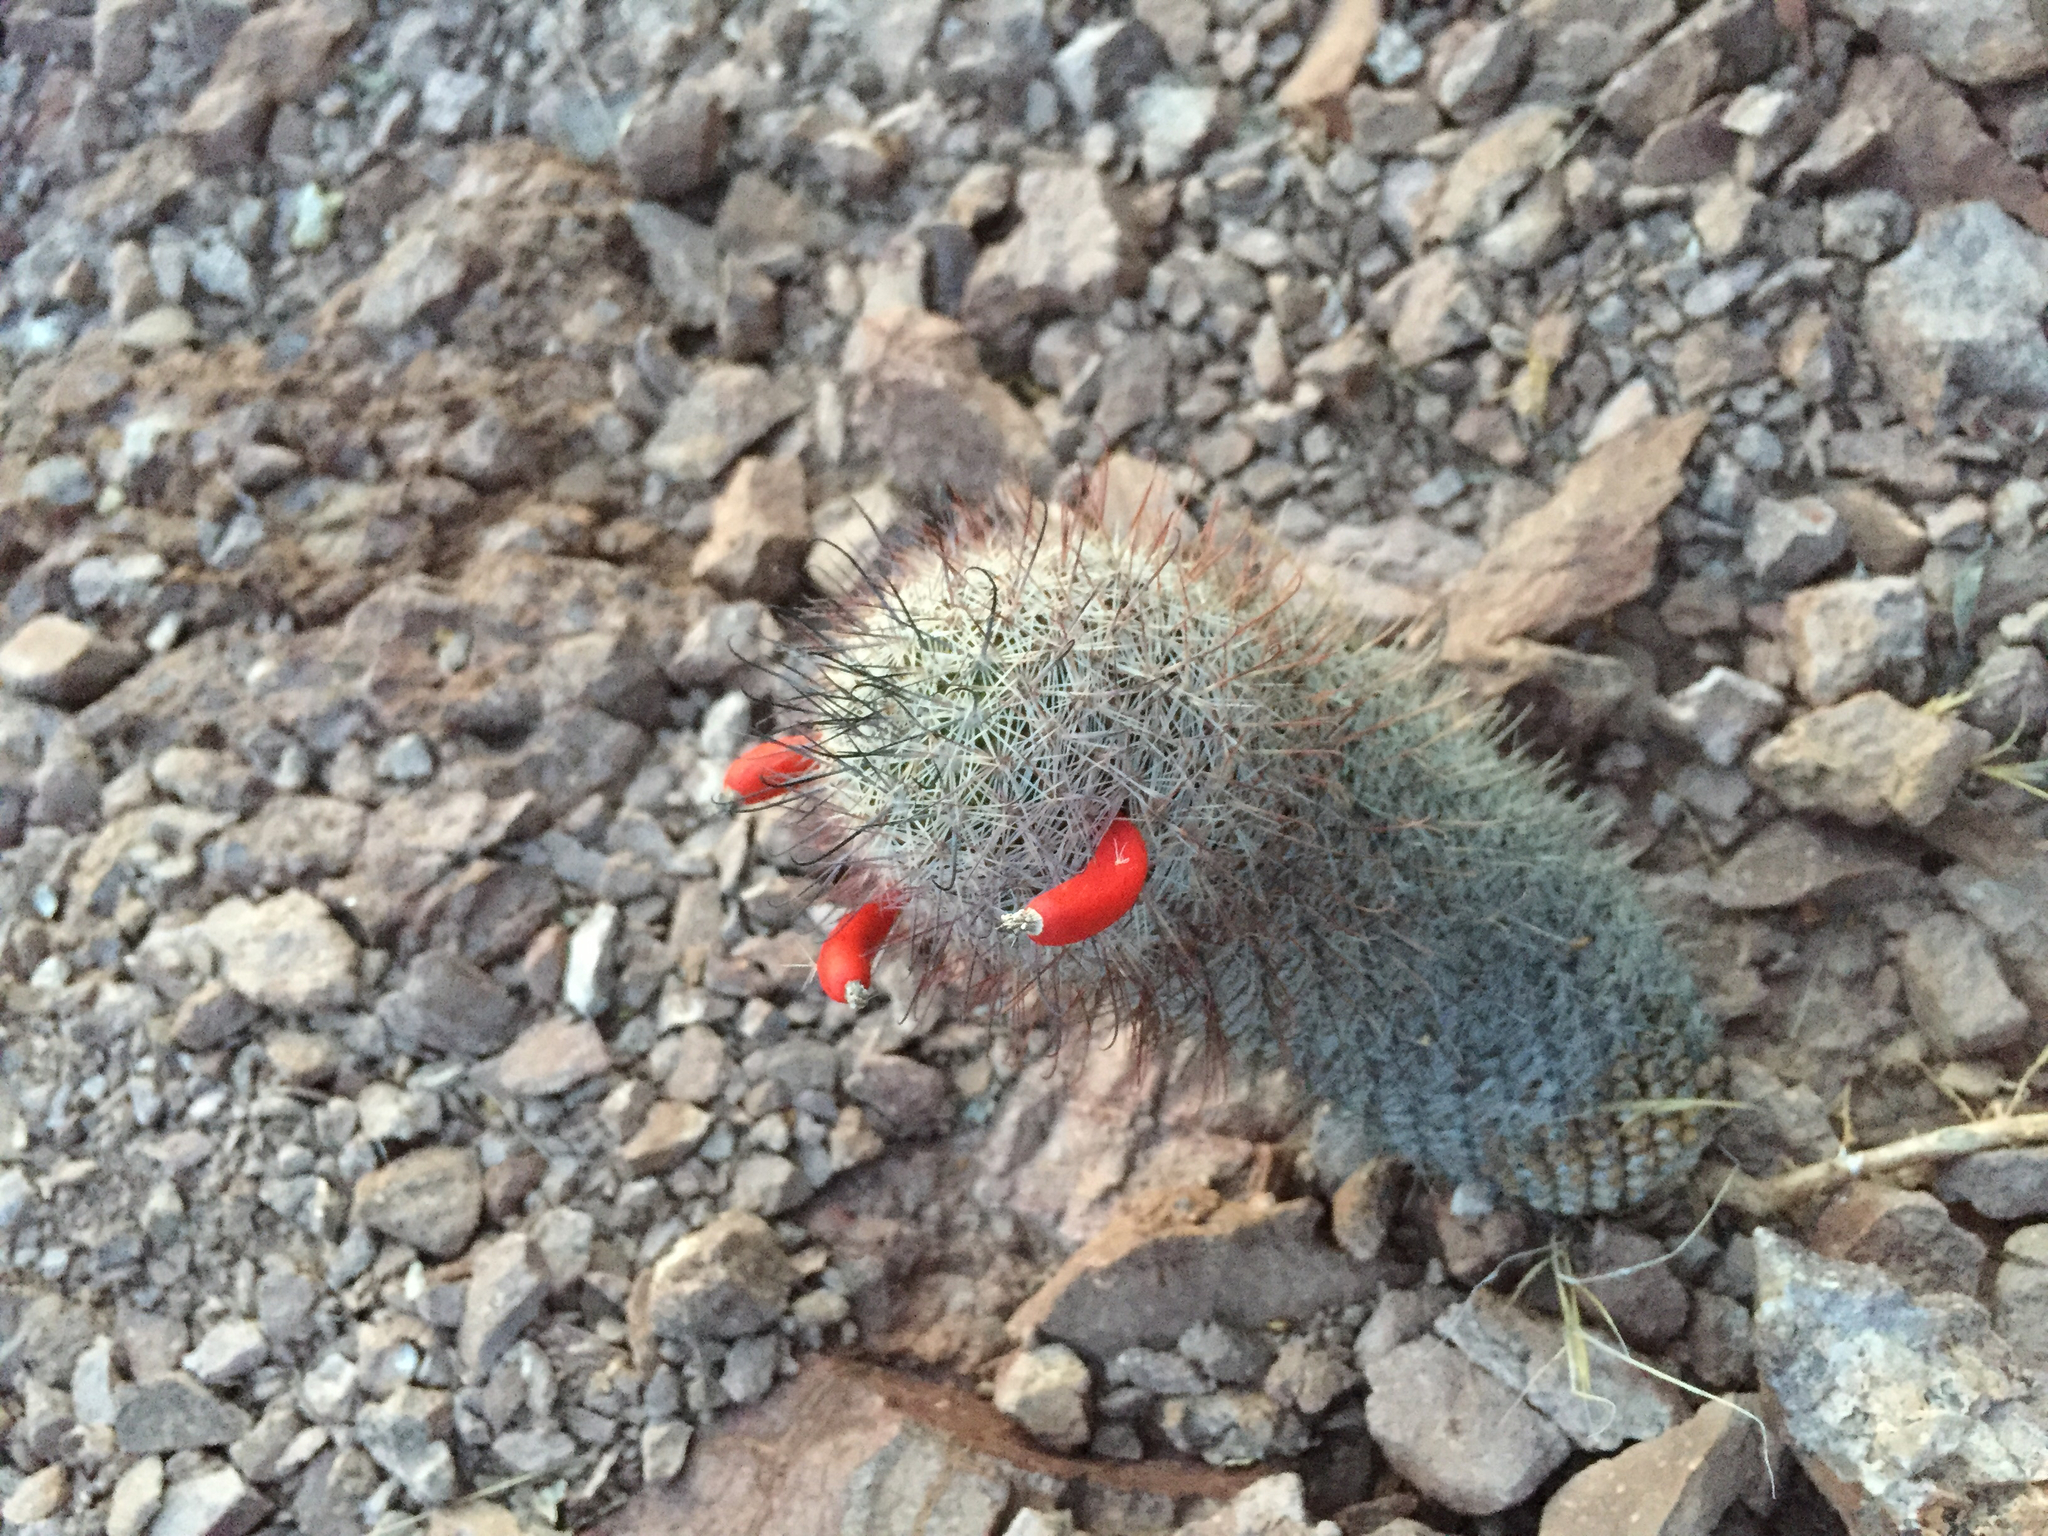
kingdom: Plantae
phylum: Tracheophyta
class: Magnoliopsida
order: Caryophyllales
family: Cactaceae
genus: Cochemiea
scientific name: Cochemiea grahamii
